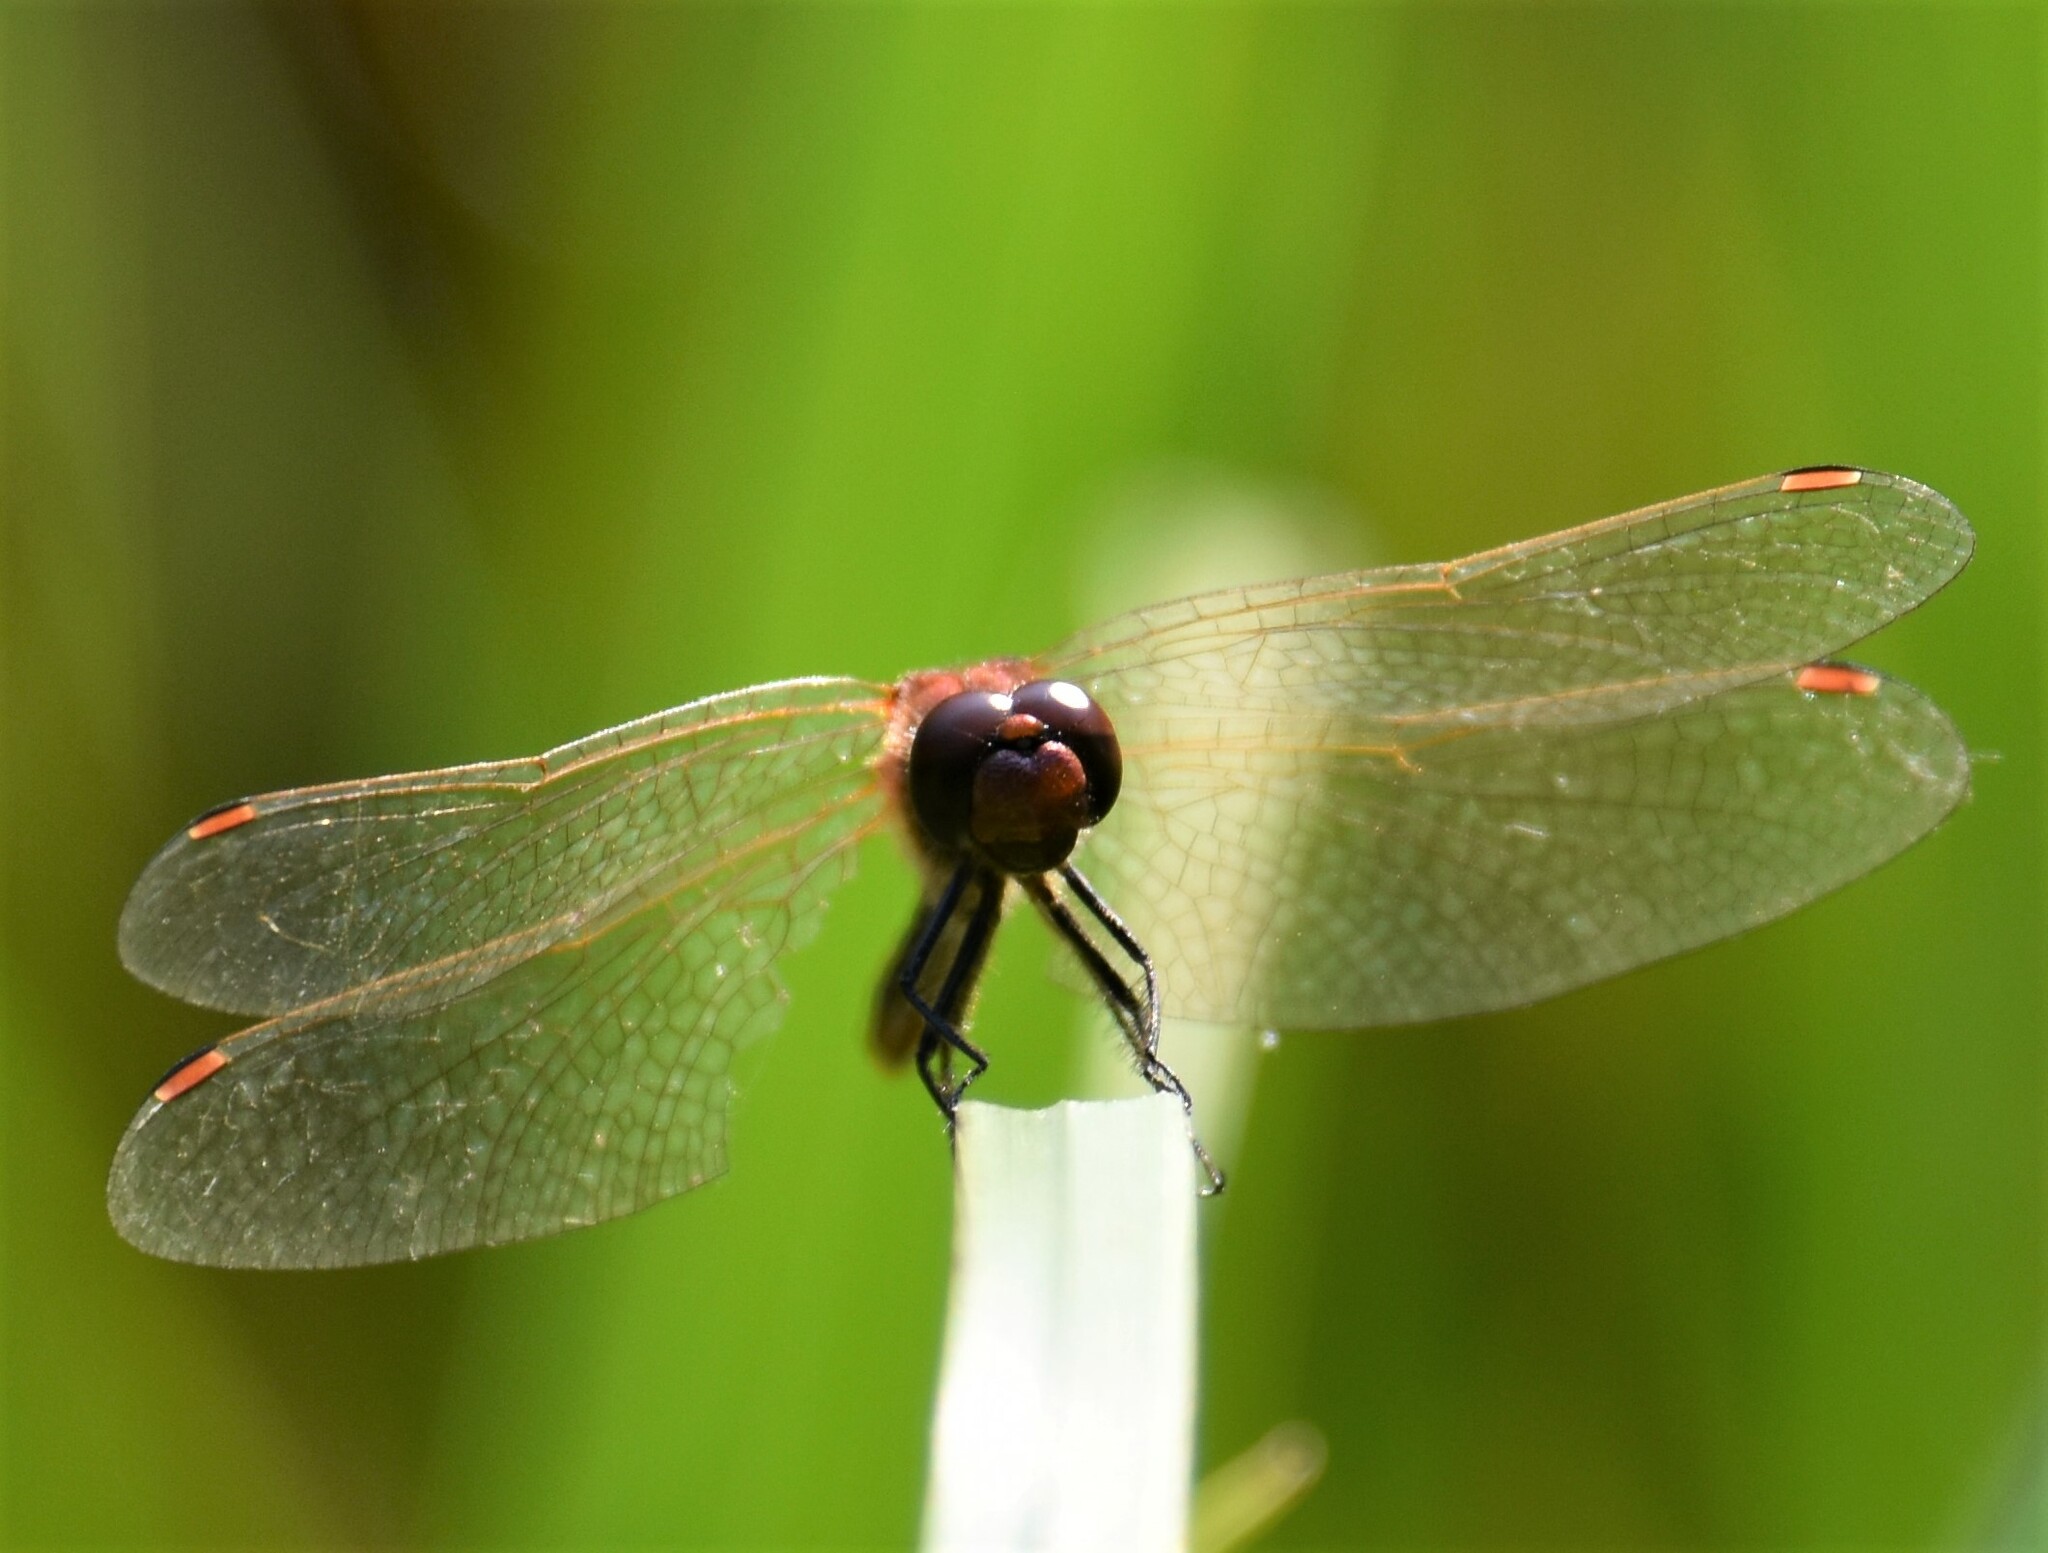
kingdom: Animalia
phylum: Arthropoda
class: Insecta
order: Odonata
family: Libellulidae
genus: Sympetrum
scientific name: Sympetrum internum
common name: Cherry-faced meadowhawk
